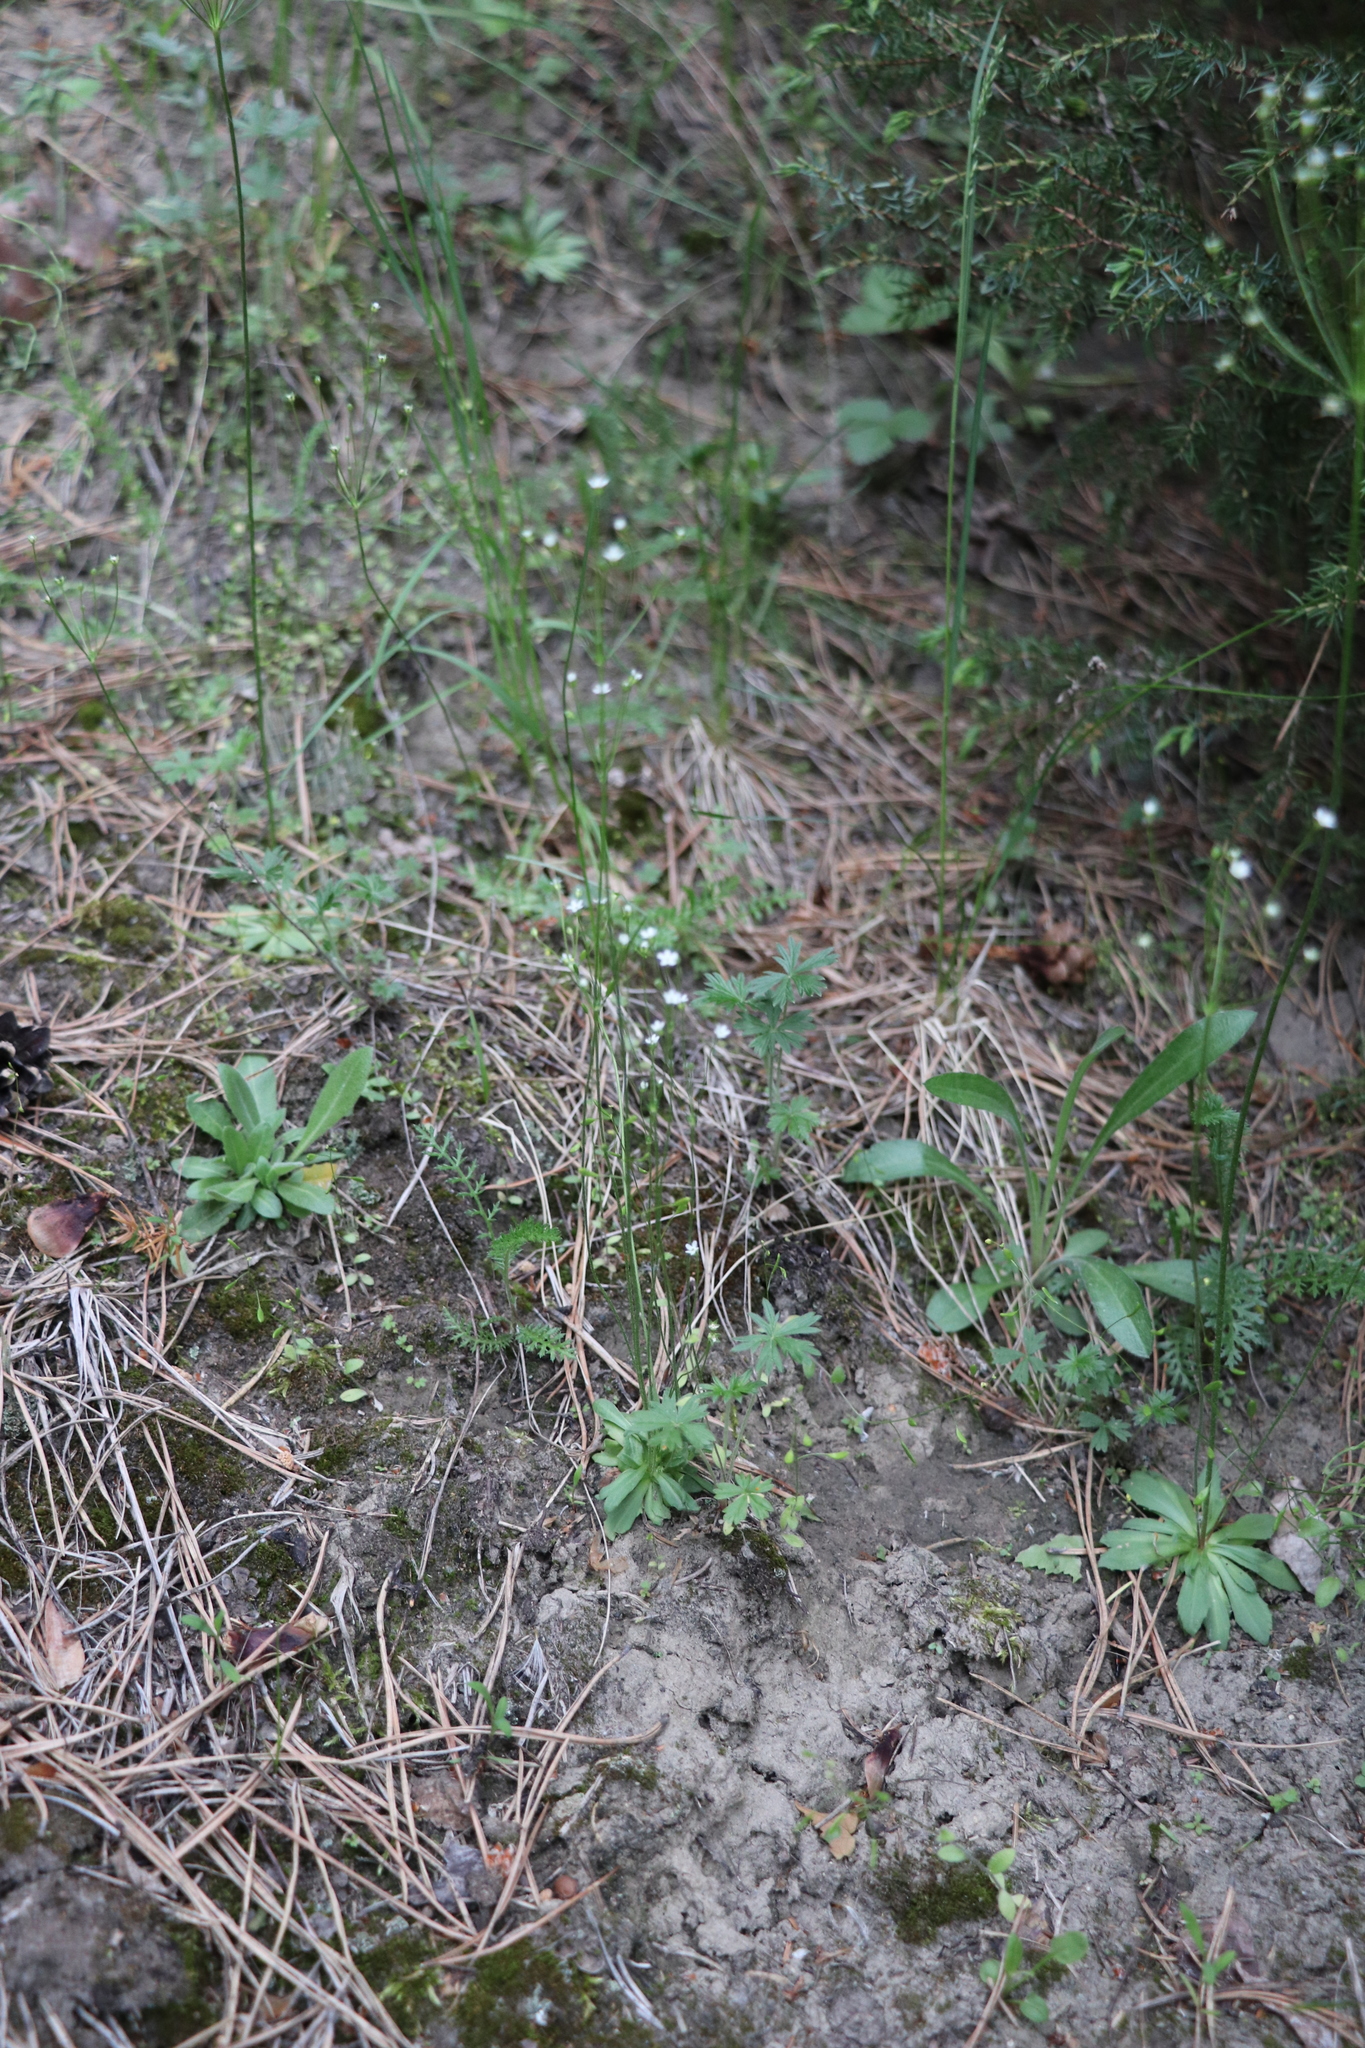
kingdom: Plantae
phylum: Tracheophyta
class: Magnoliopsida
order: Ericales
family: Primulaceae
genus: Androsace
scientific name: Androsace septentrionalis
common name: Hairy northern fairy-candelabra
